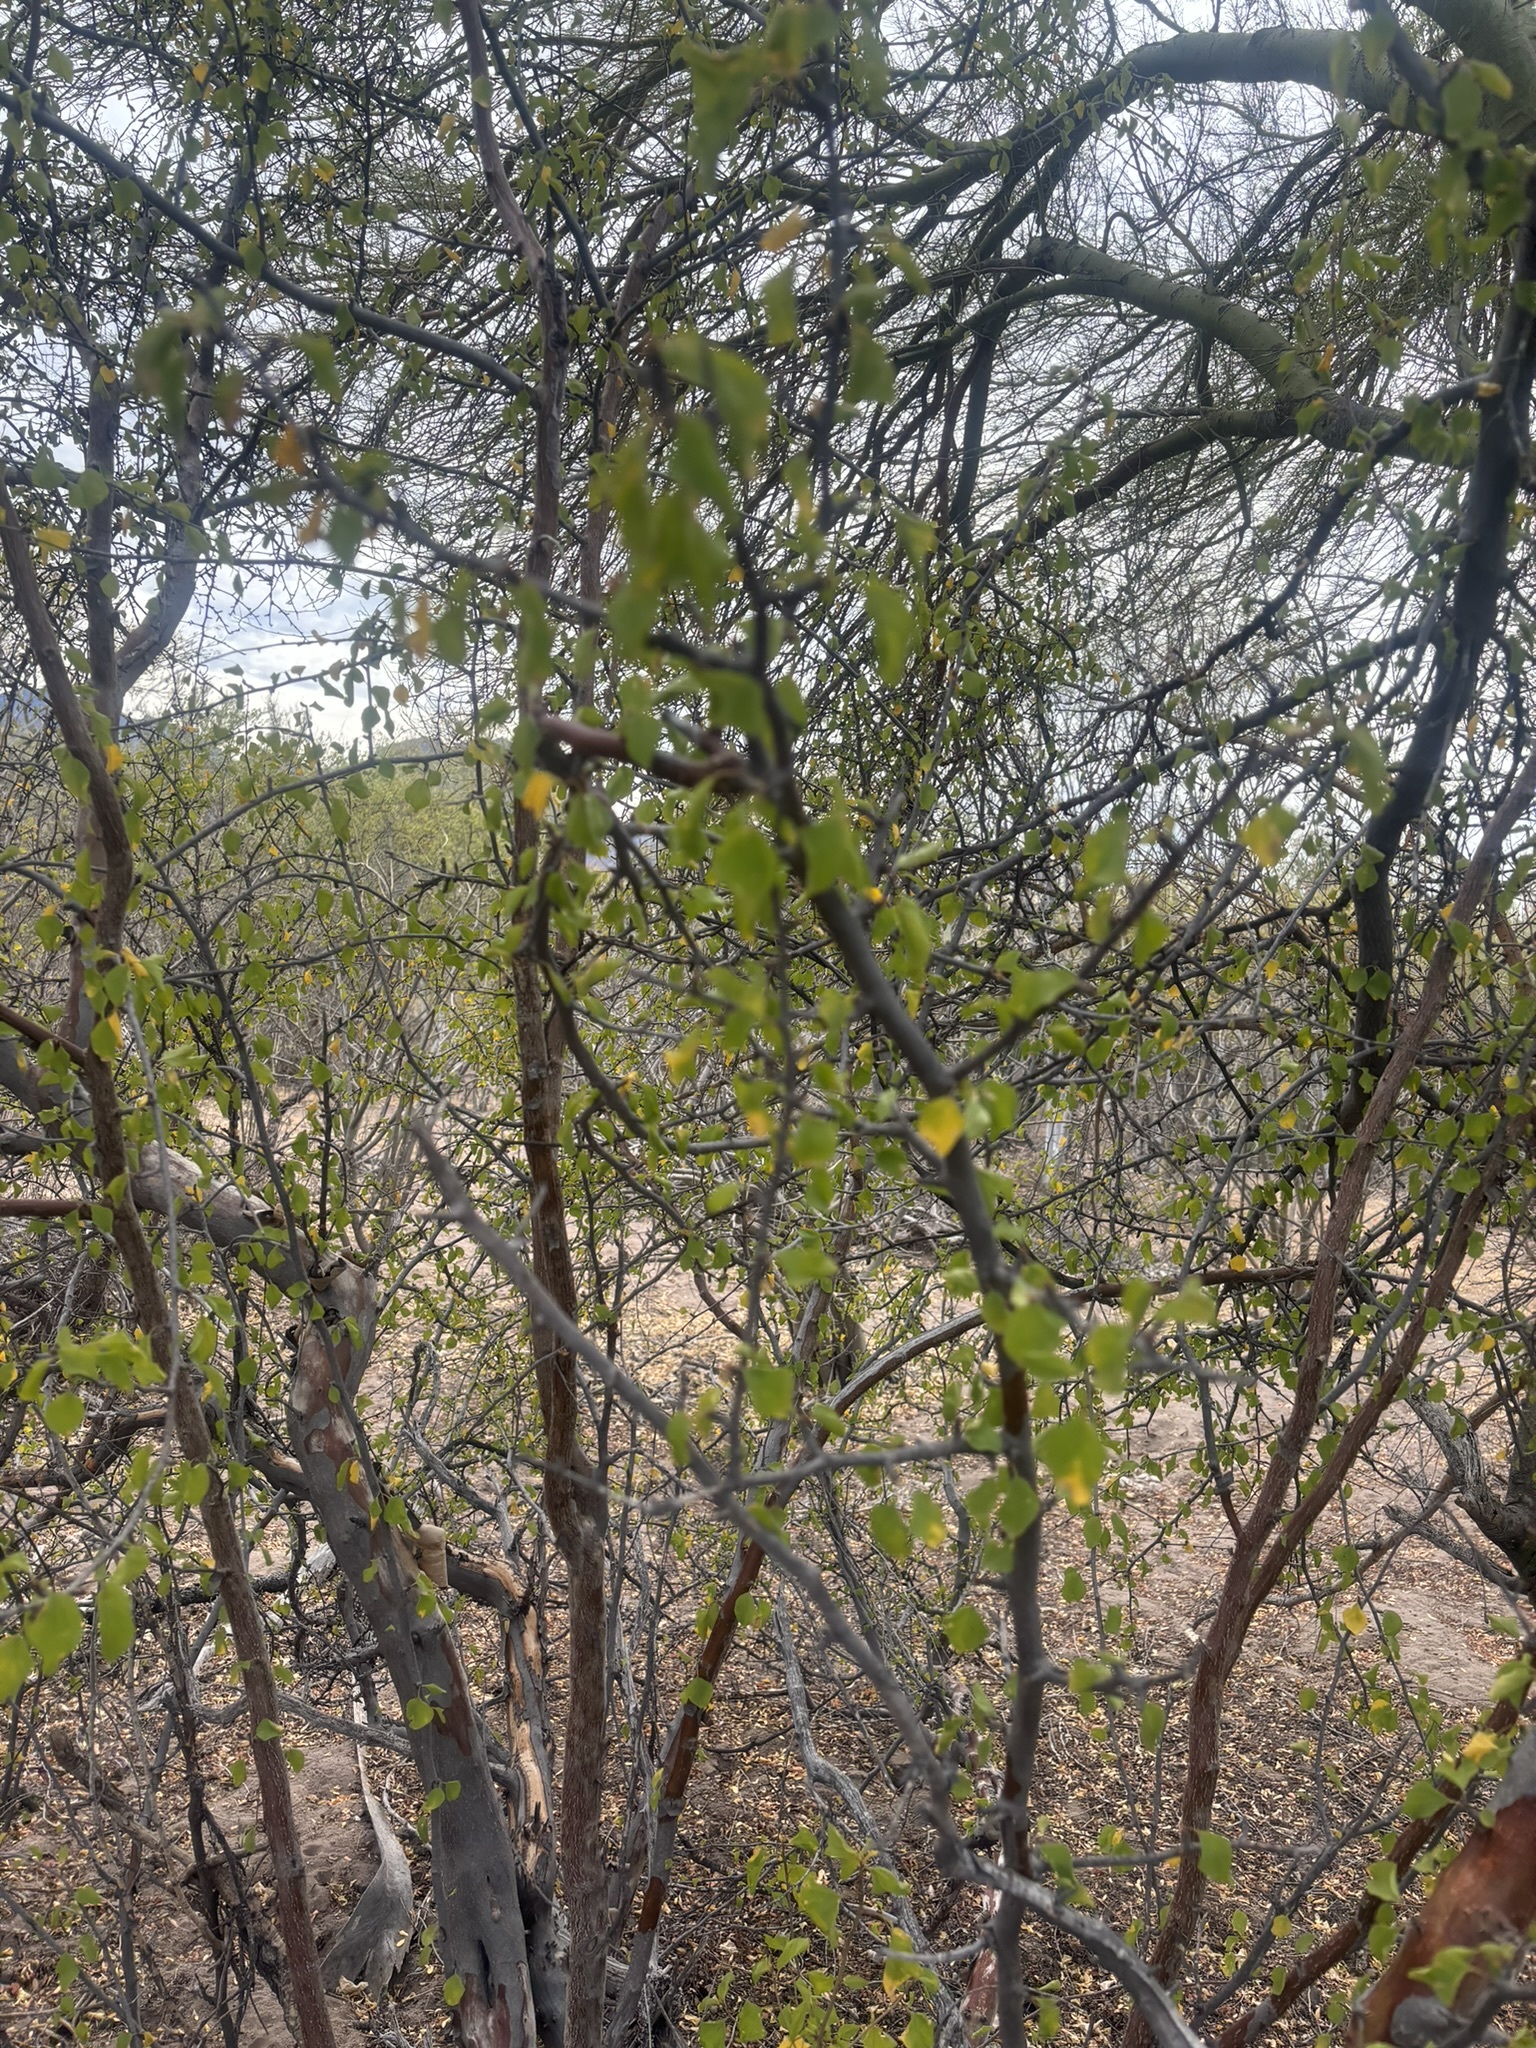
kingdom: Plantae
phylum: Tracheophyta
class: Magnoliopsida
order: Rosales
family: Rhamnaceae
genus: Colubrina
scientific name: Colubrina viridis
